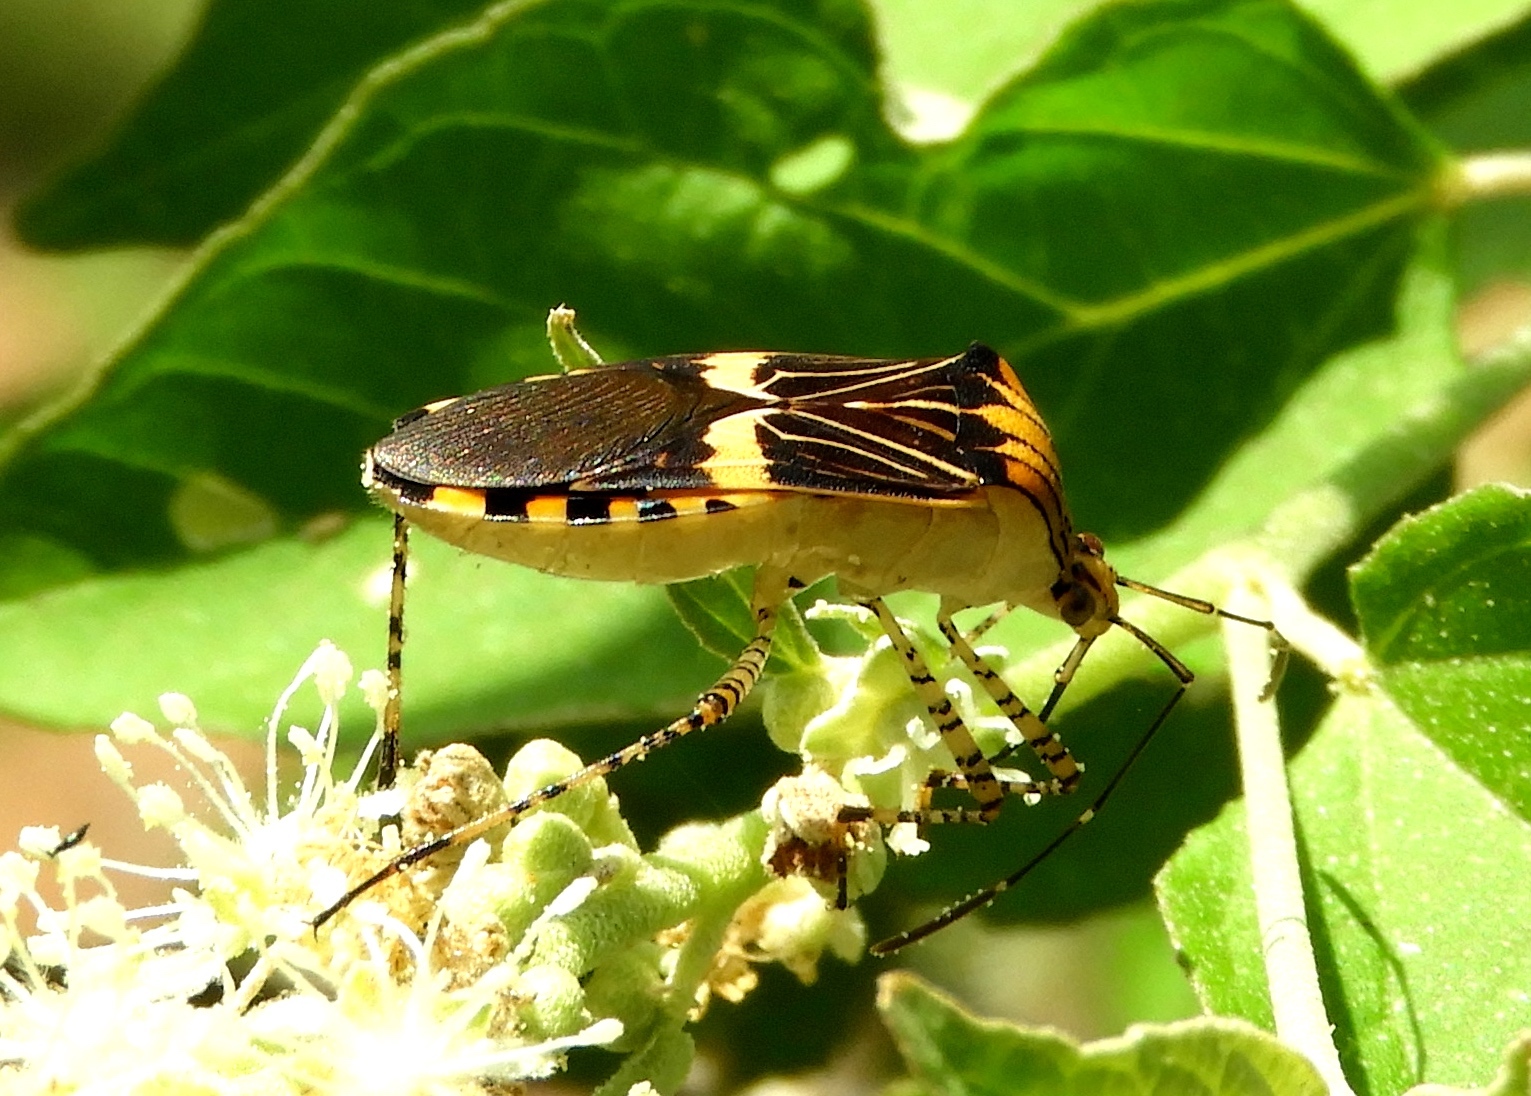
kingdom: Animalia
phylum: Arthropoda
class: Insecta
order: Hemiptera
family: Coreidae
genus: Hypselonotus
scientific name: Hypselonotus lineatus
